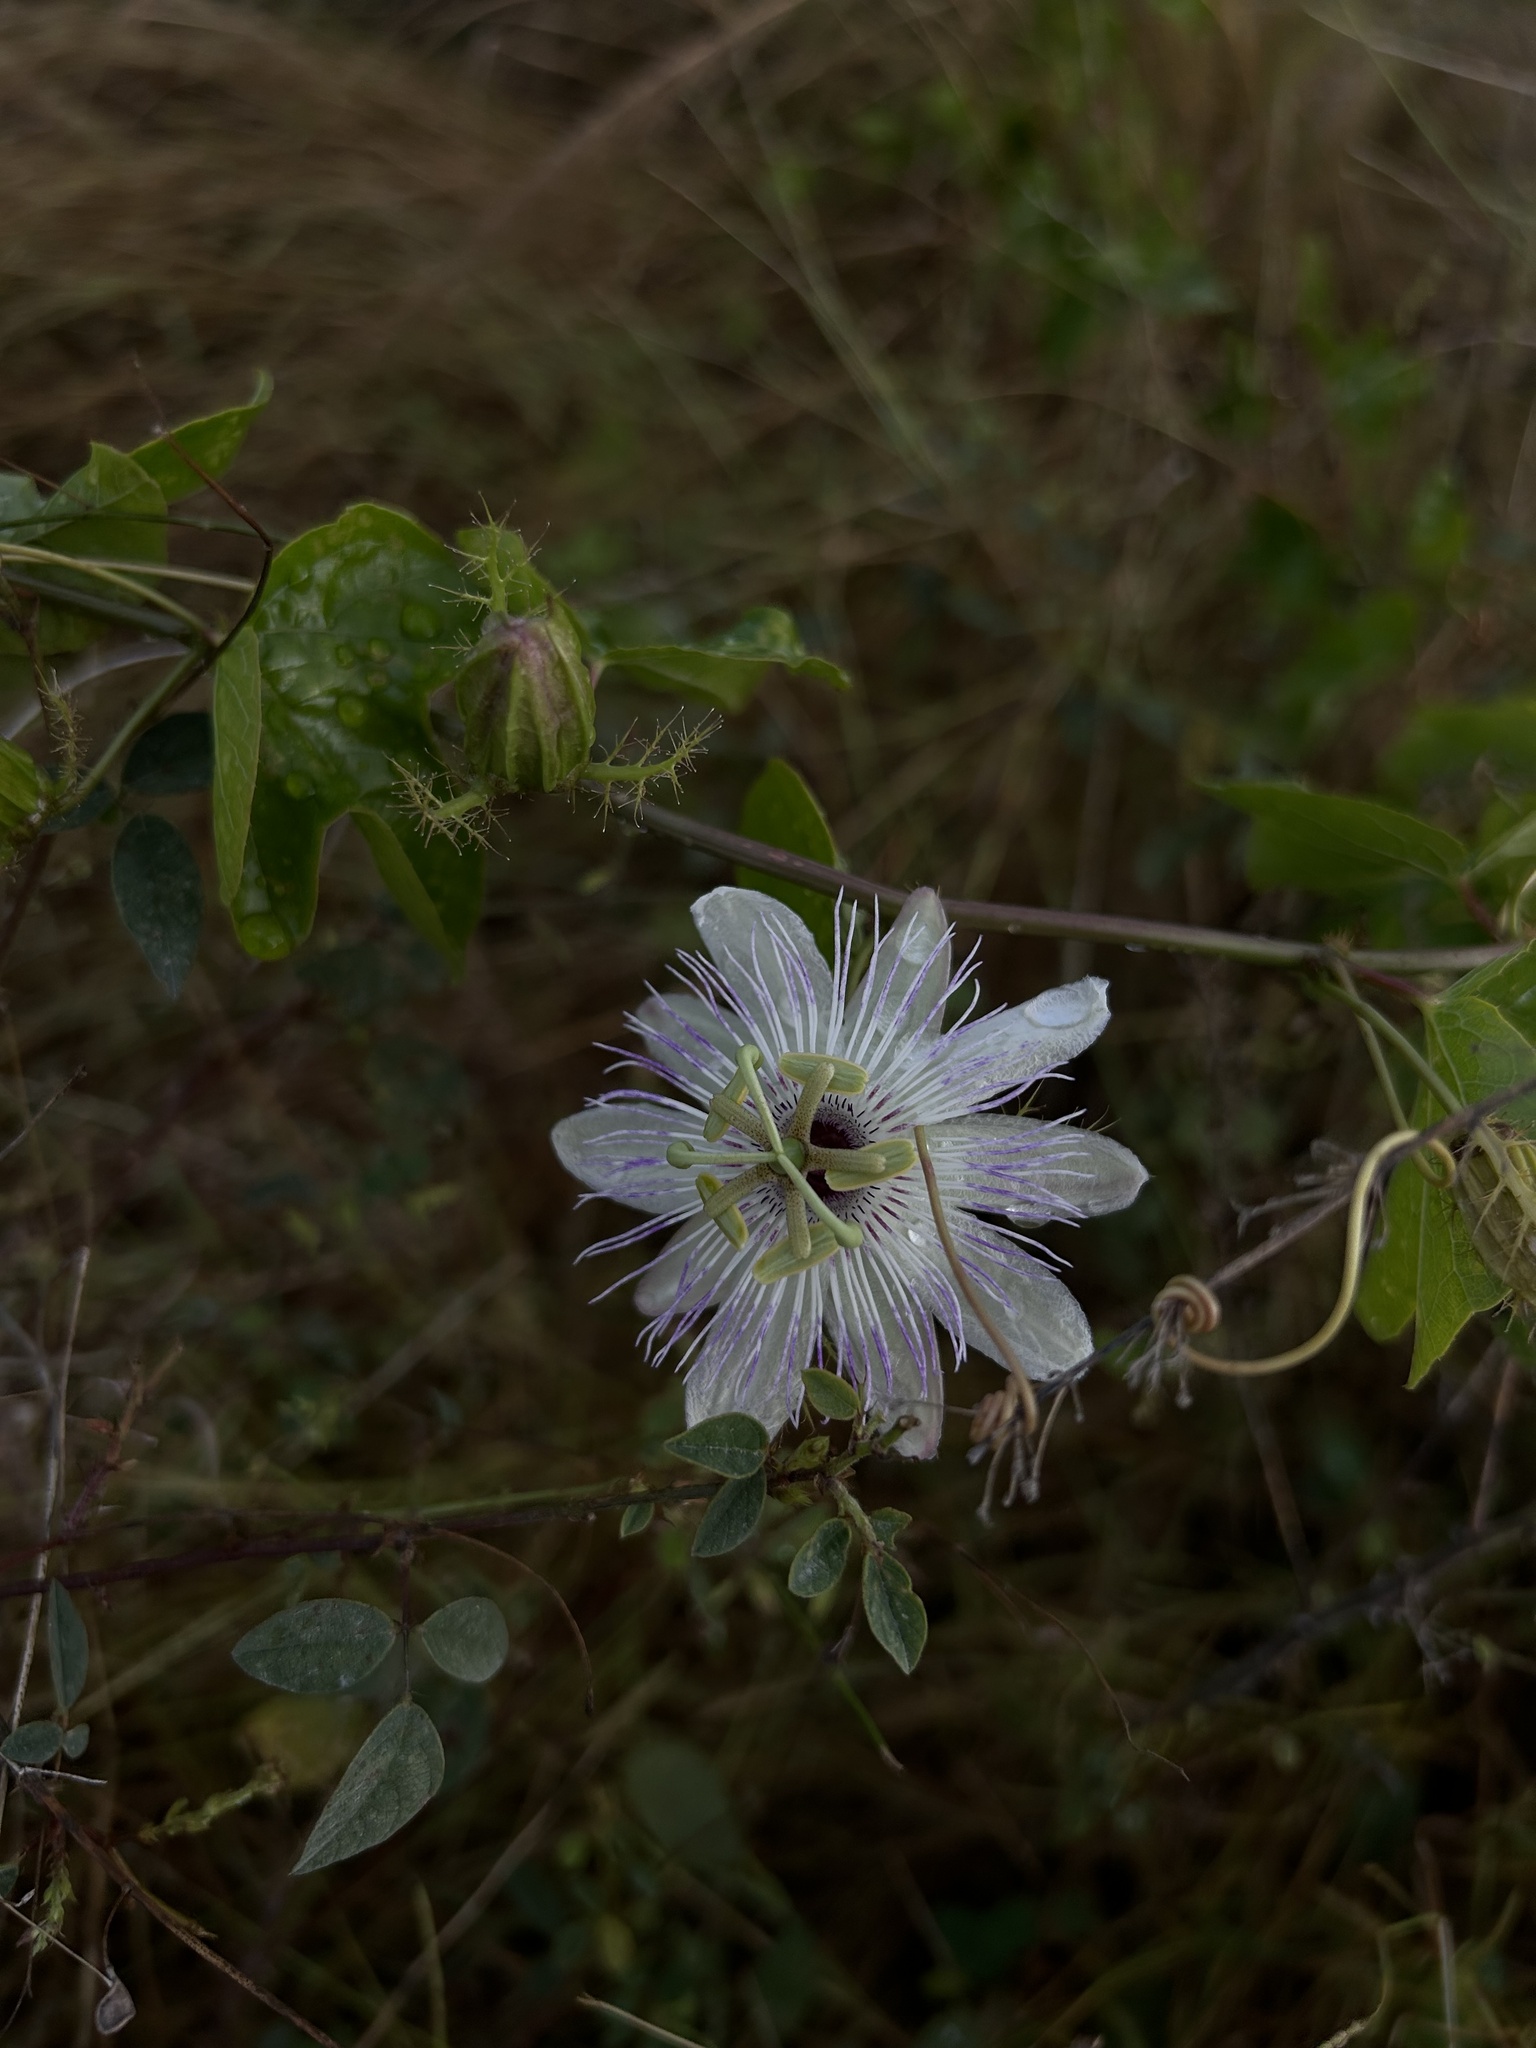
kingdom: Plantae
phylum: Tracheophyta
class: Magnoliopsida
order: Malpighiales
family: Passifloraceae
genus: Passiflora
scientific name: Passiflora ciliata
